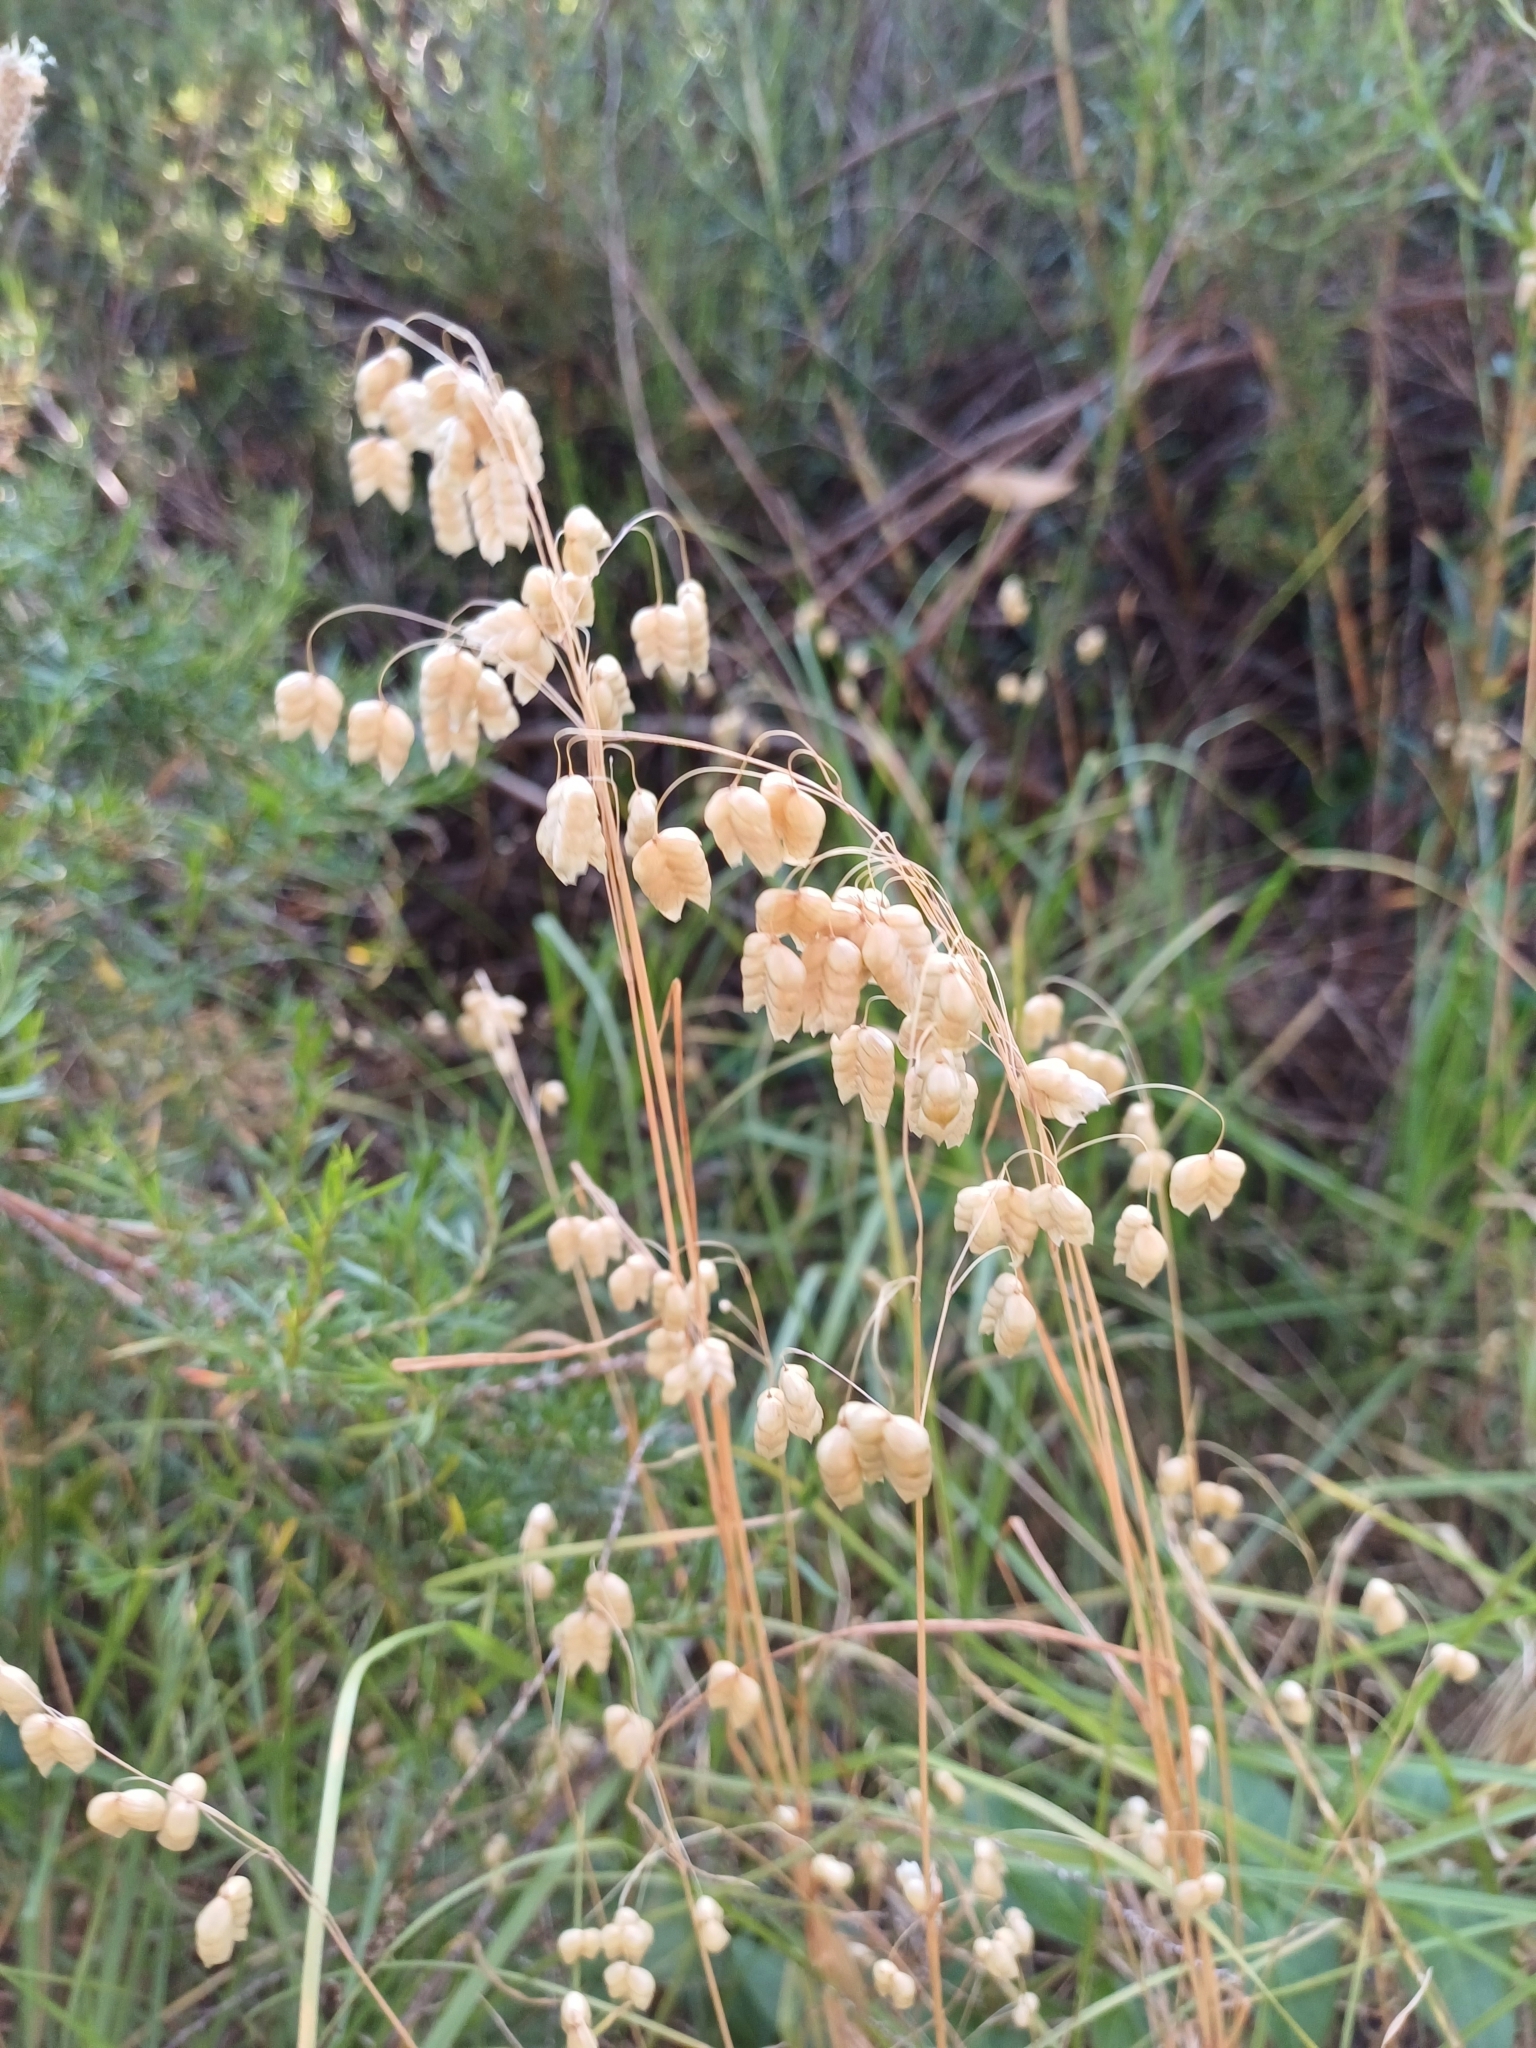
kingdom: Plantae
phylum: Tracheophyta
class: Liliopsida
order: Poales
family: Poaceae
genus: Briza
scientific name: Briza maxima
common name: Big quakinggrass
